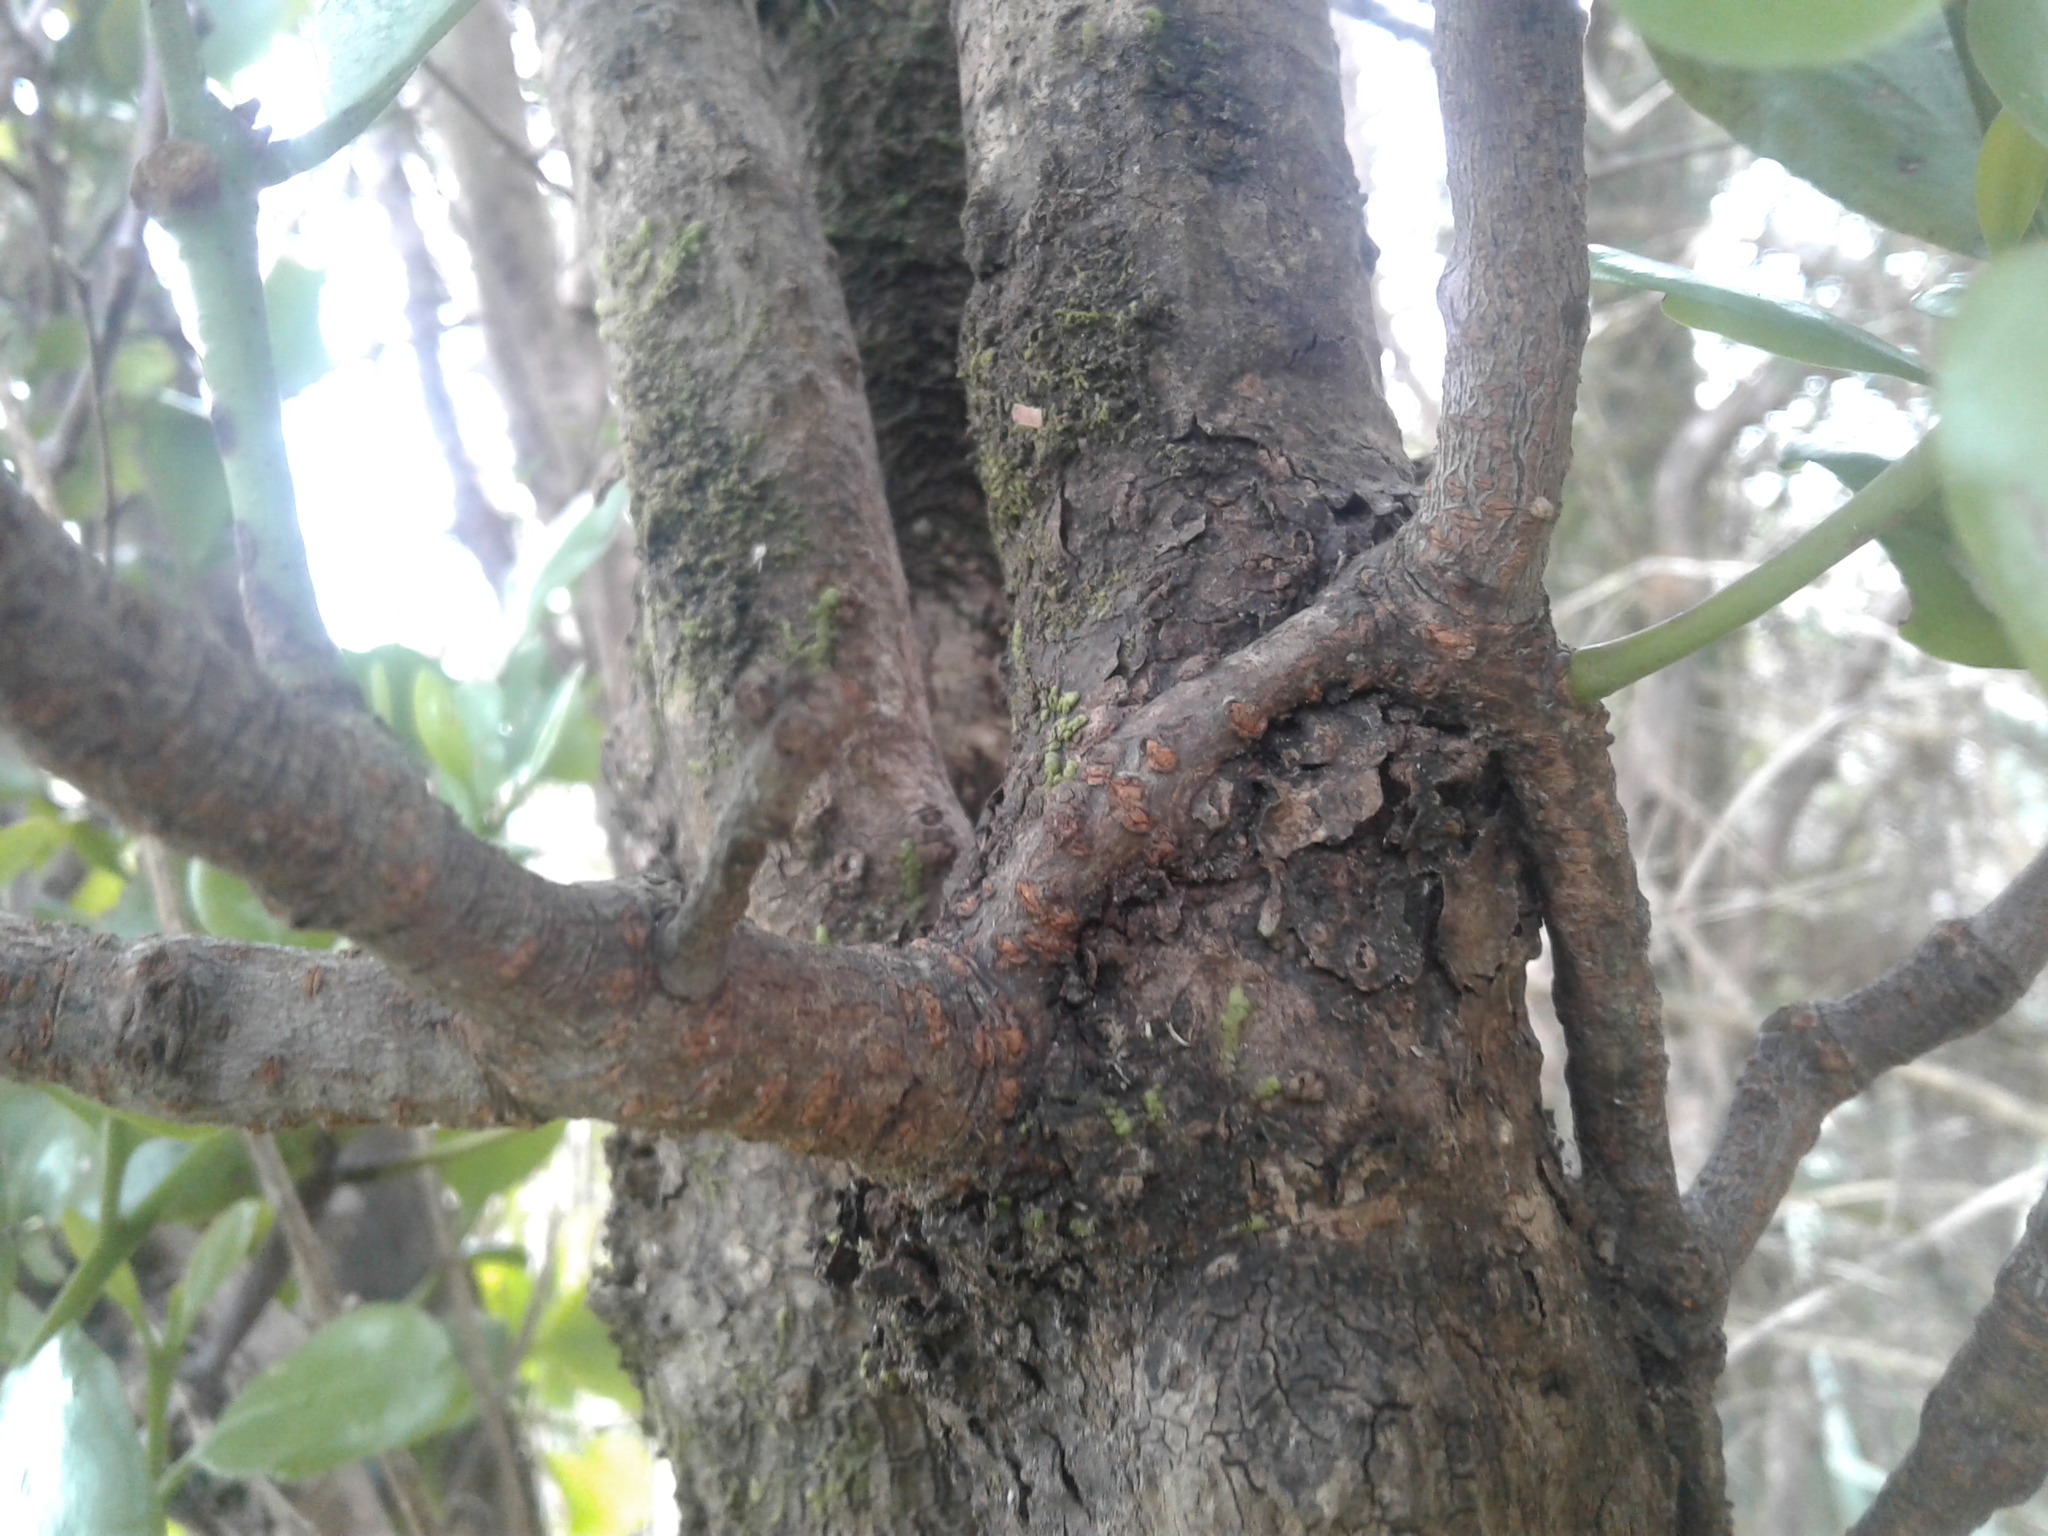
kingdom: Plantae
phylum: Tracheophyta
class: Magnoliopsida
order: Santalales
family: Loranthaceae
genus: Ileostylus
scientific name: Ileostylus micranthus
